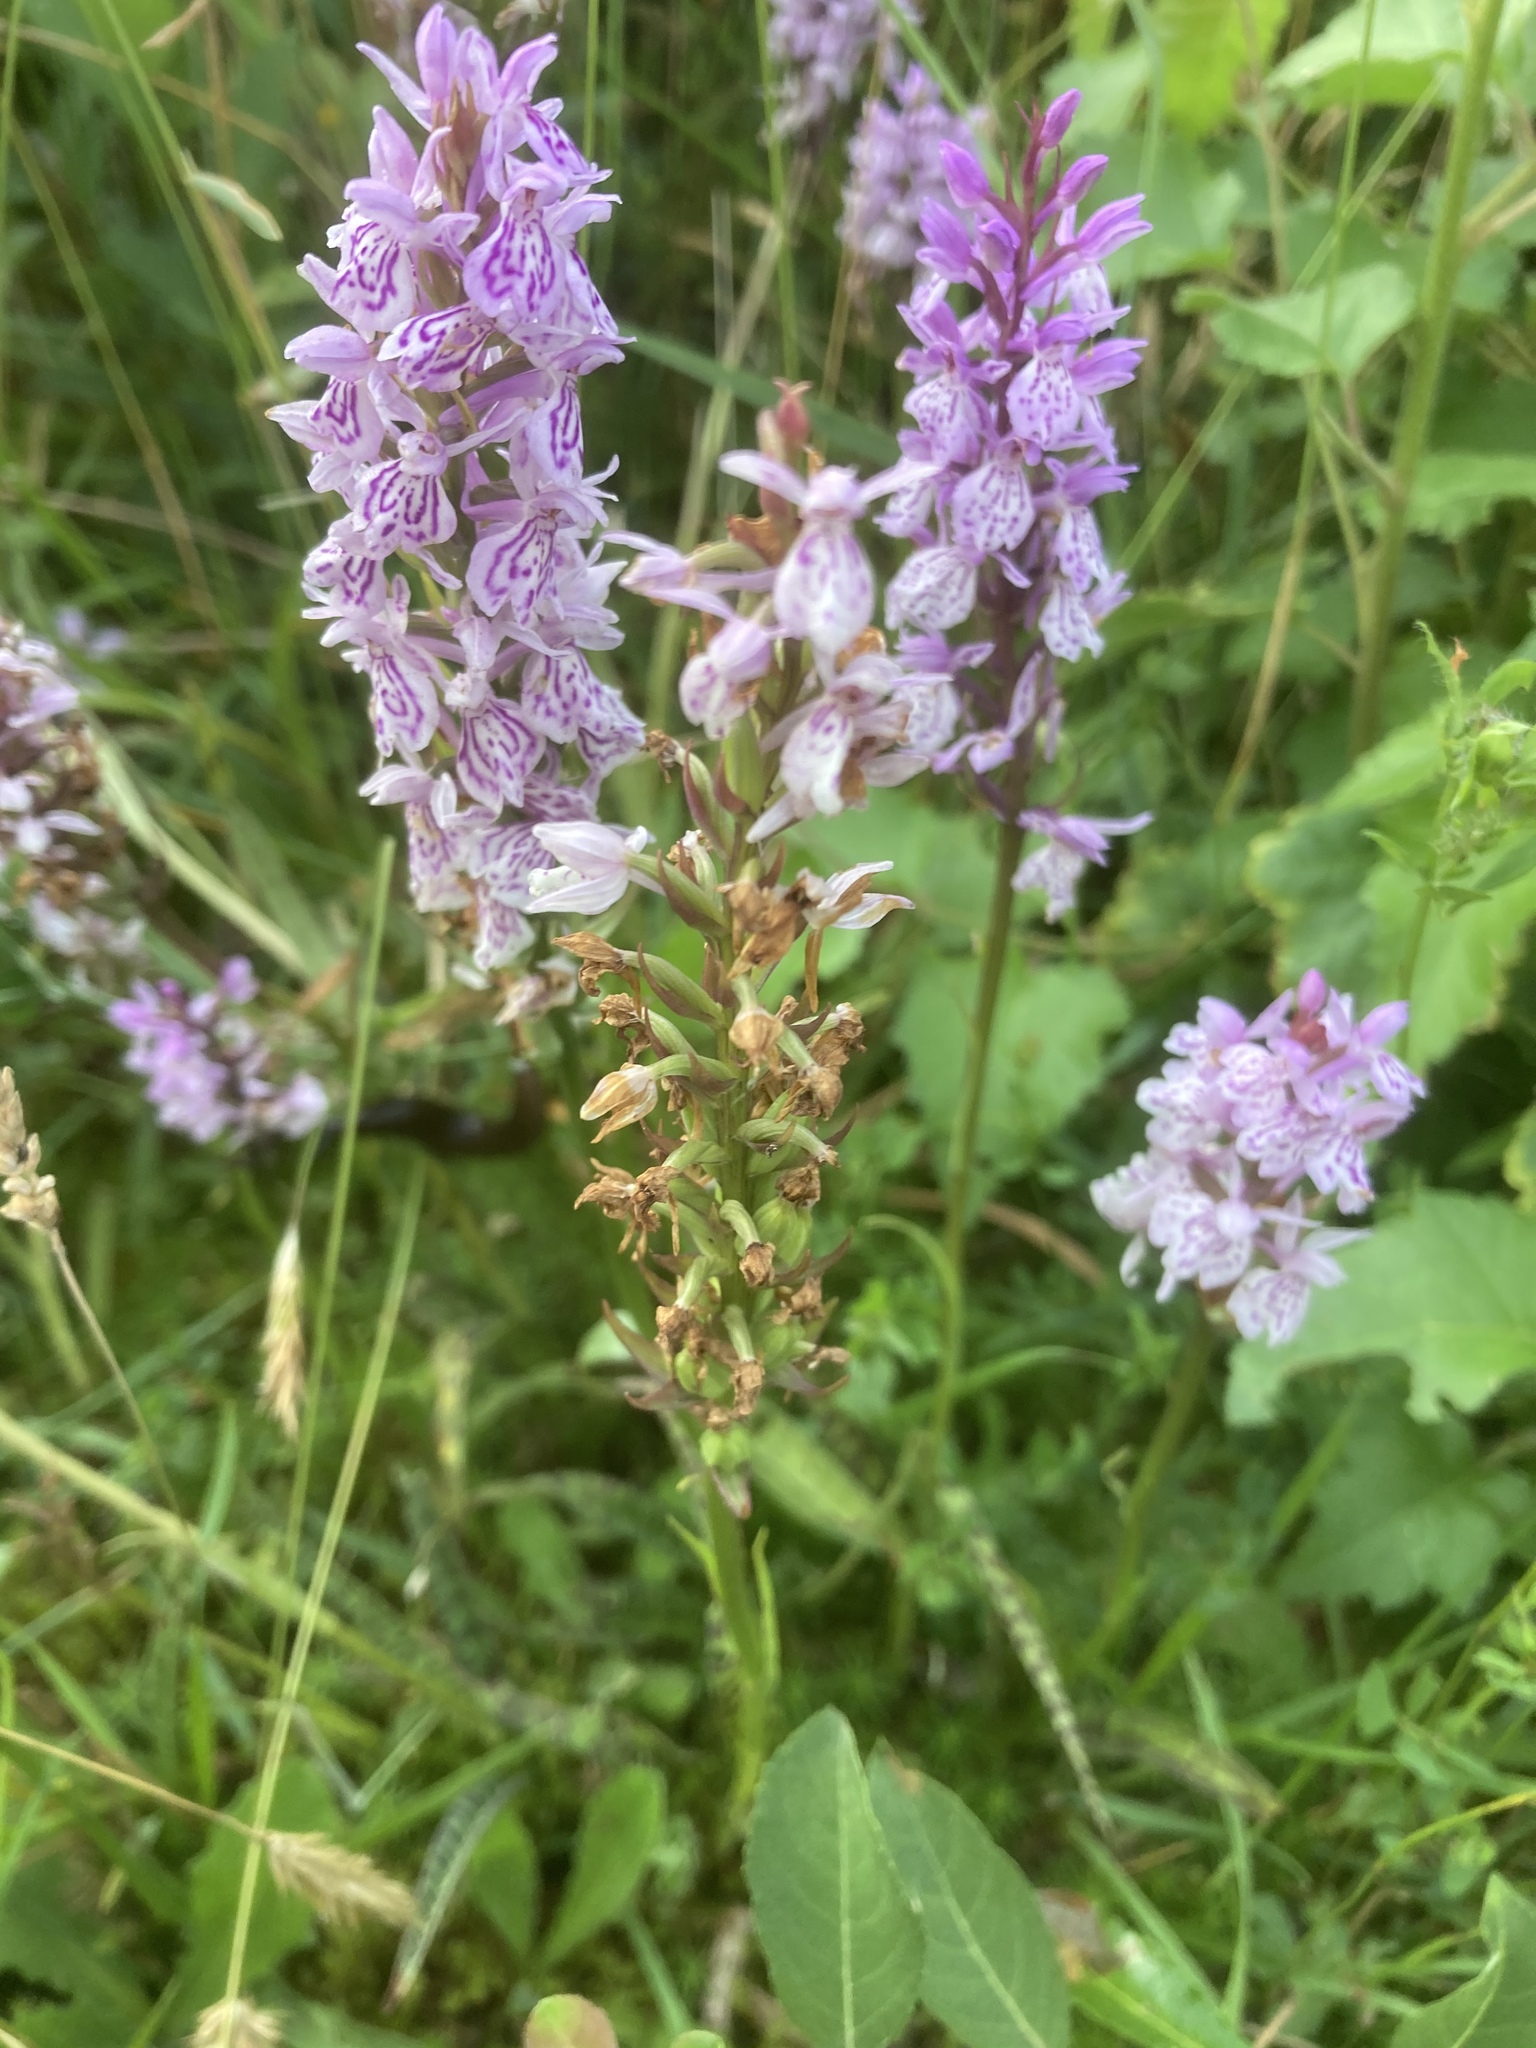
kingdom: Plantae
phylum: Tracheophyta
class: Liliopsida
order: Asparagales
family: Orchidaceae
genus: Dactylorhiza
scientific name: Dactylorhiza maculata
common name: Heath spotted-orchid
